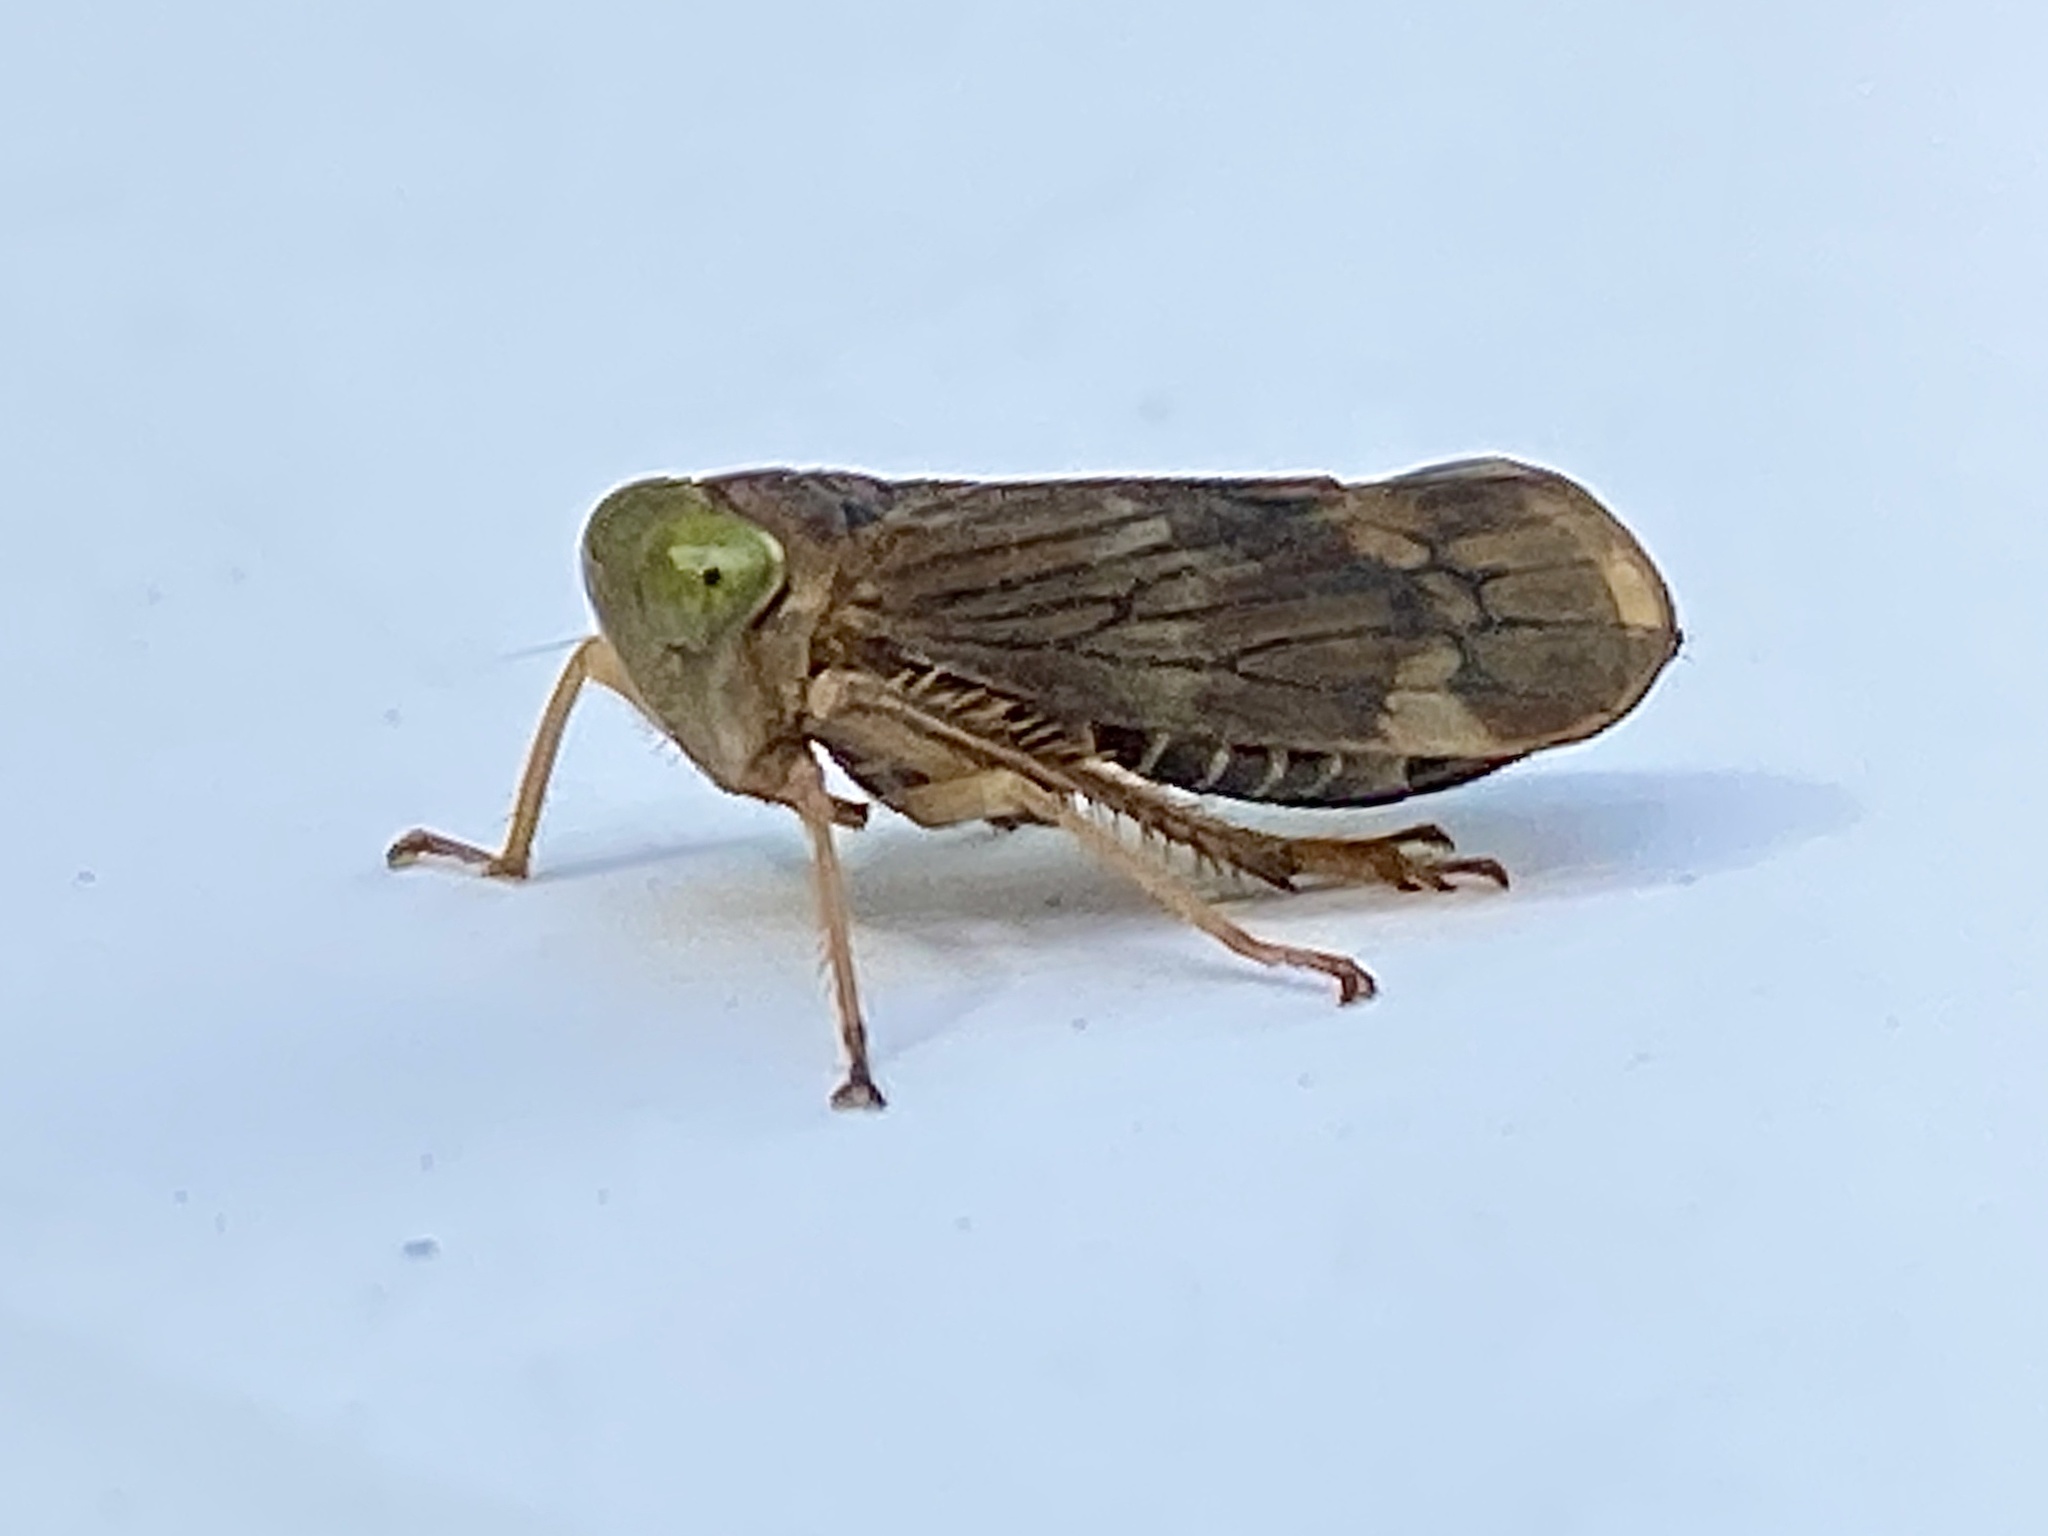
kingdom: Animalia
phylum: Arthropoda
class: Insecta
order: Hemiptera
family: Cicadellidae
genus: Jikradia
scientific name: Jikradia olitoria
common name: Coppery leafhopper
